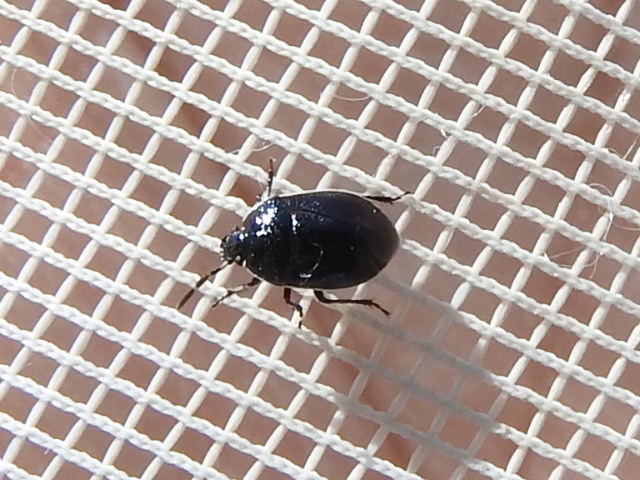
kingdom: Animalia
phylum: Arthropoda
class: Insecta
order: Hemiptera
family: Cydnidae
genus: Sehirus
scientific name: Sehirus cinctus
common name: White-margined burrower bug
